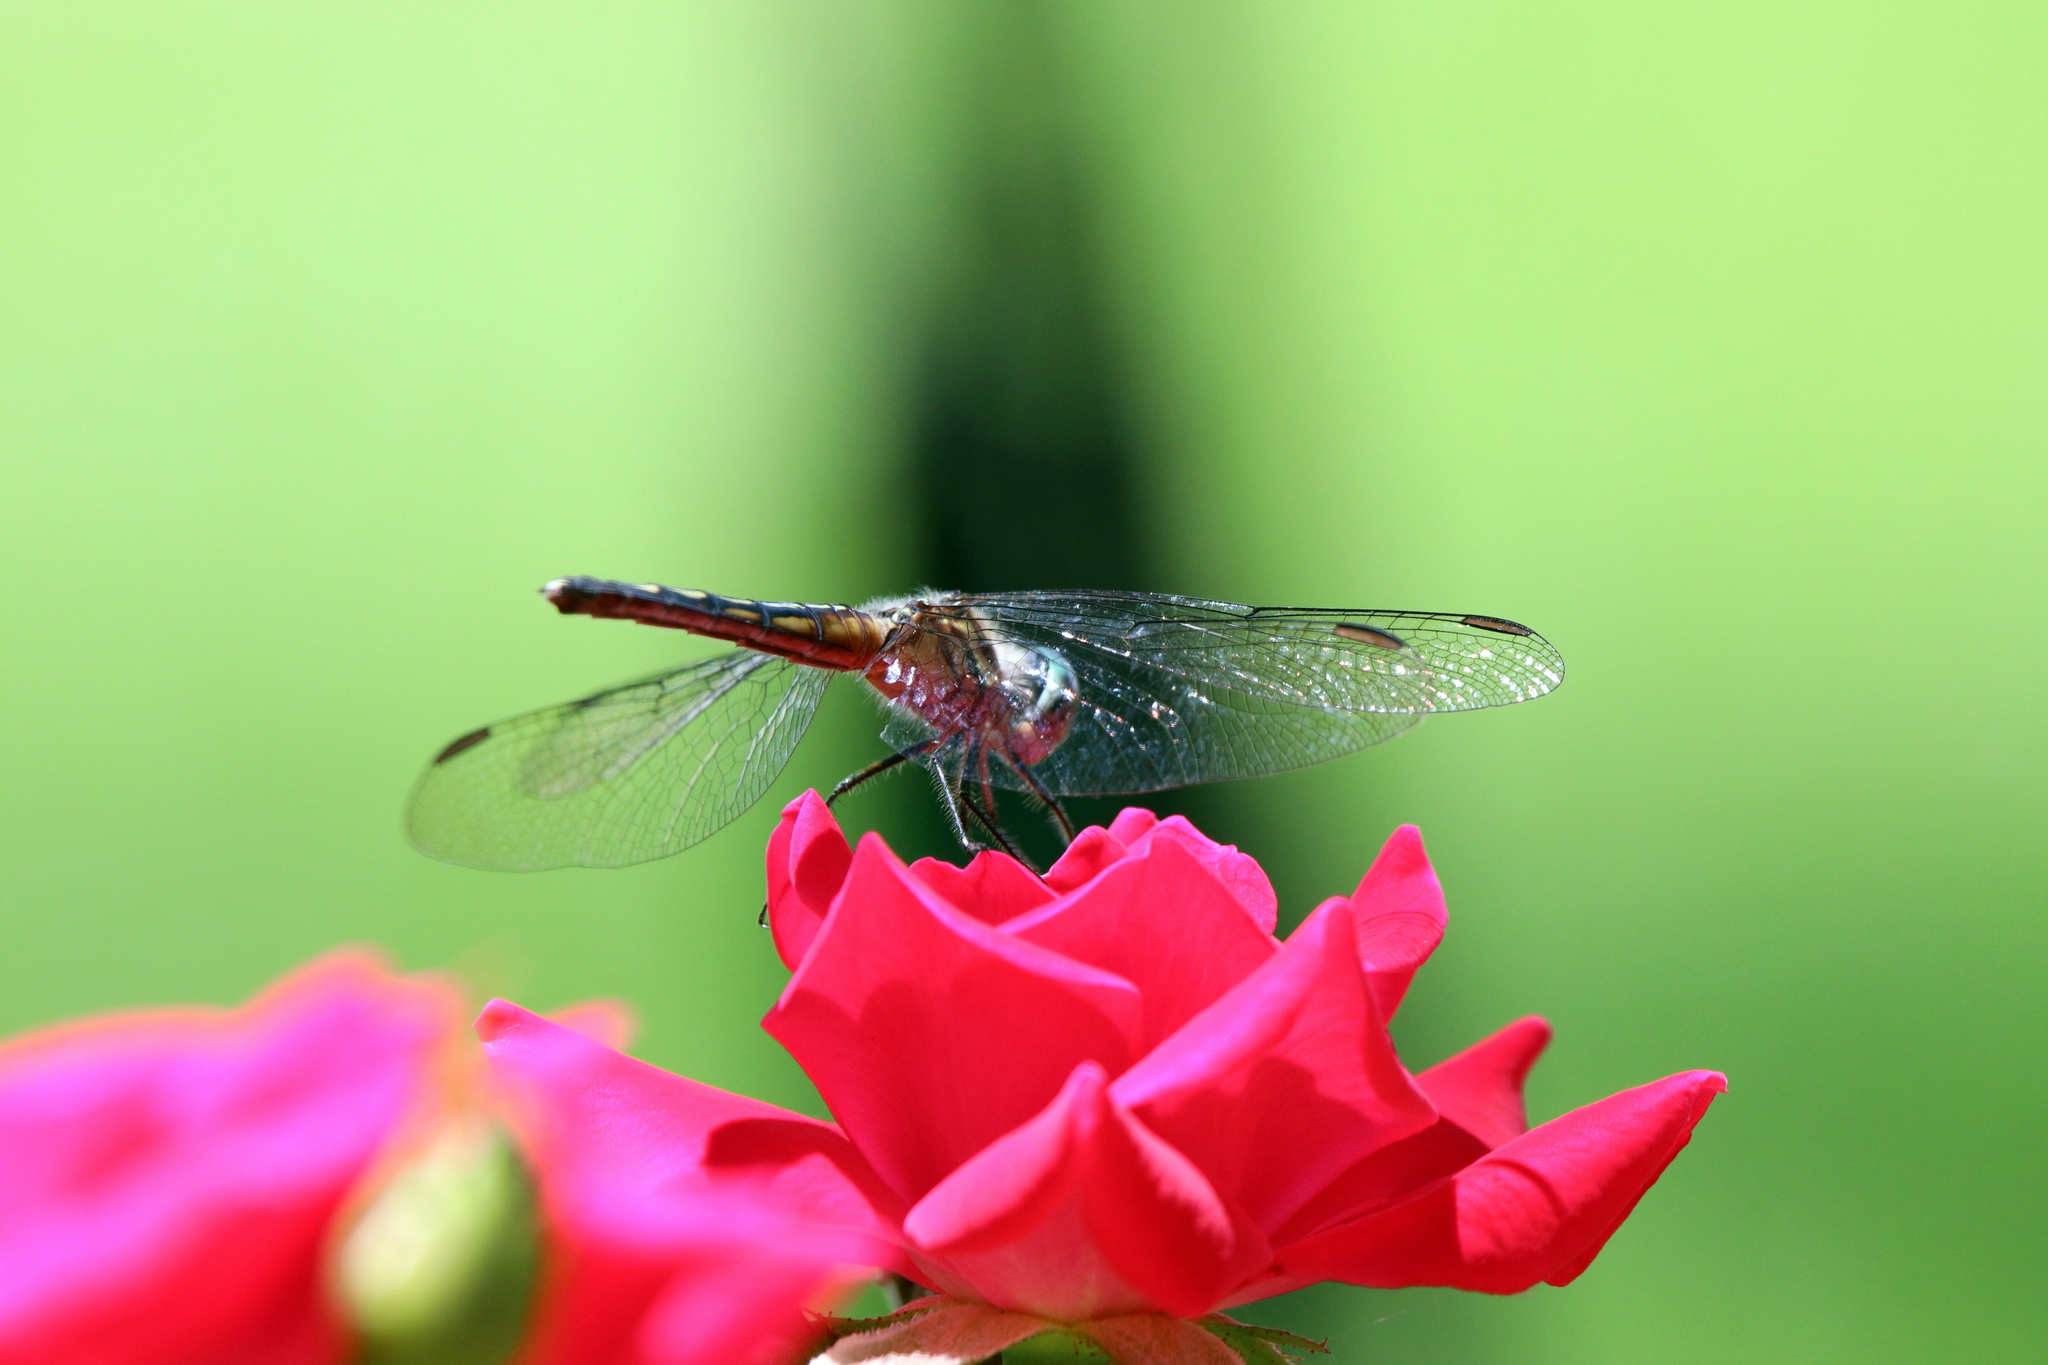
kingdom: Animalia
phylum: Arthropoda
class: Insecta
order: Odonata
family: Libellulidae
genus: Pachydiplax
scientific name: Pachydiplax longipennis
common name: Blue dasher
